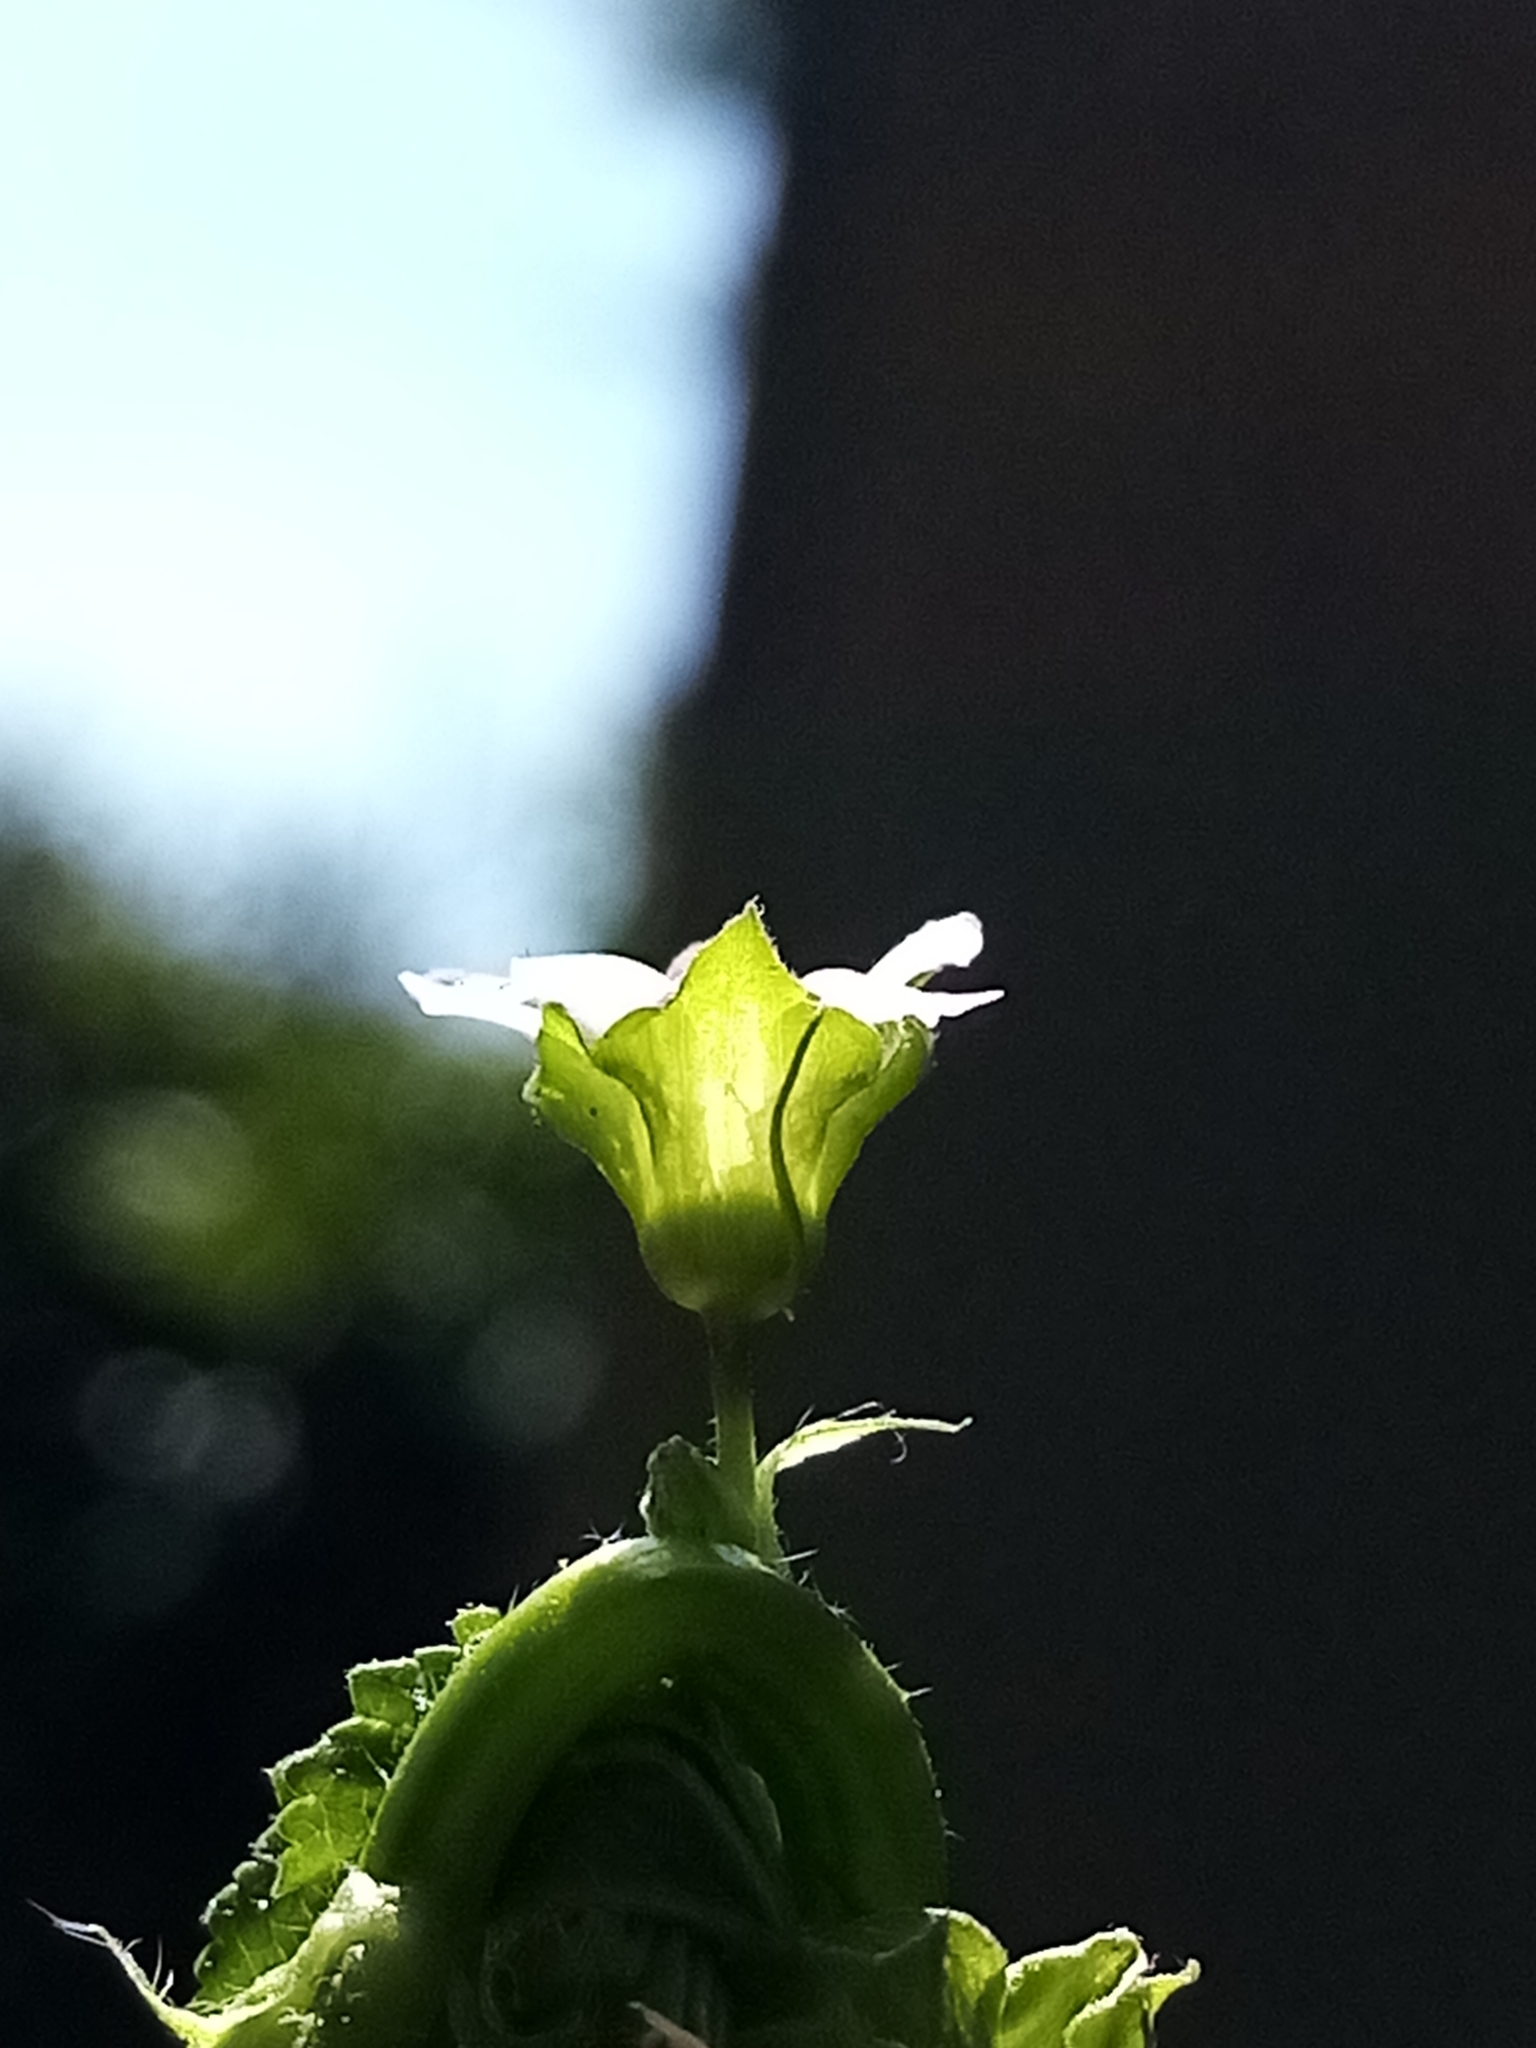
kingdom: Plantae
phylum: Tracheophyta
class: Magnoliopsida
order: Malvales
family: Malvaceae
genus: Malva
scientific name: Malva parviflora
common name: Least mallow
